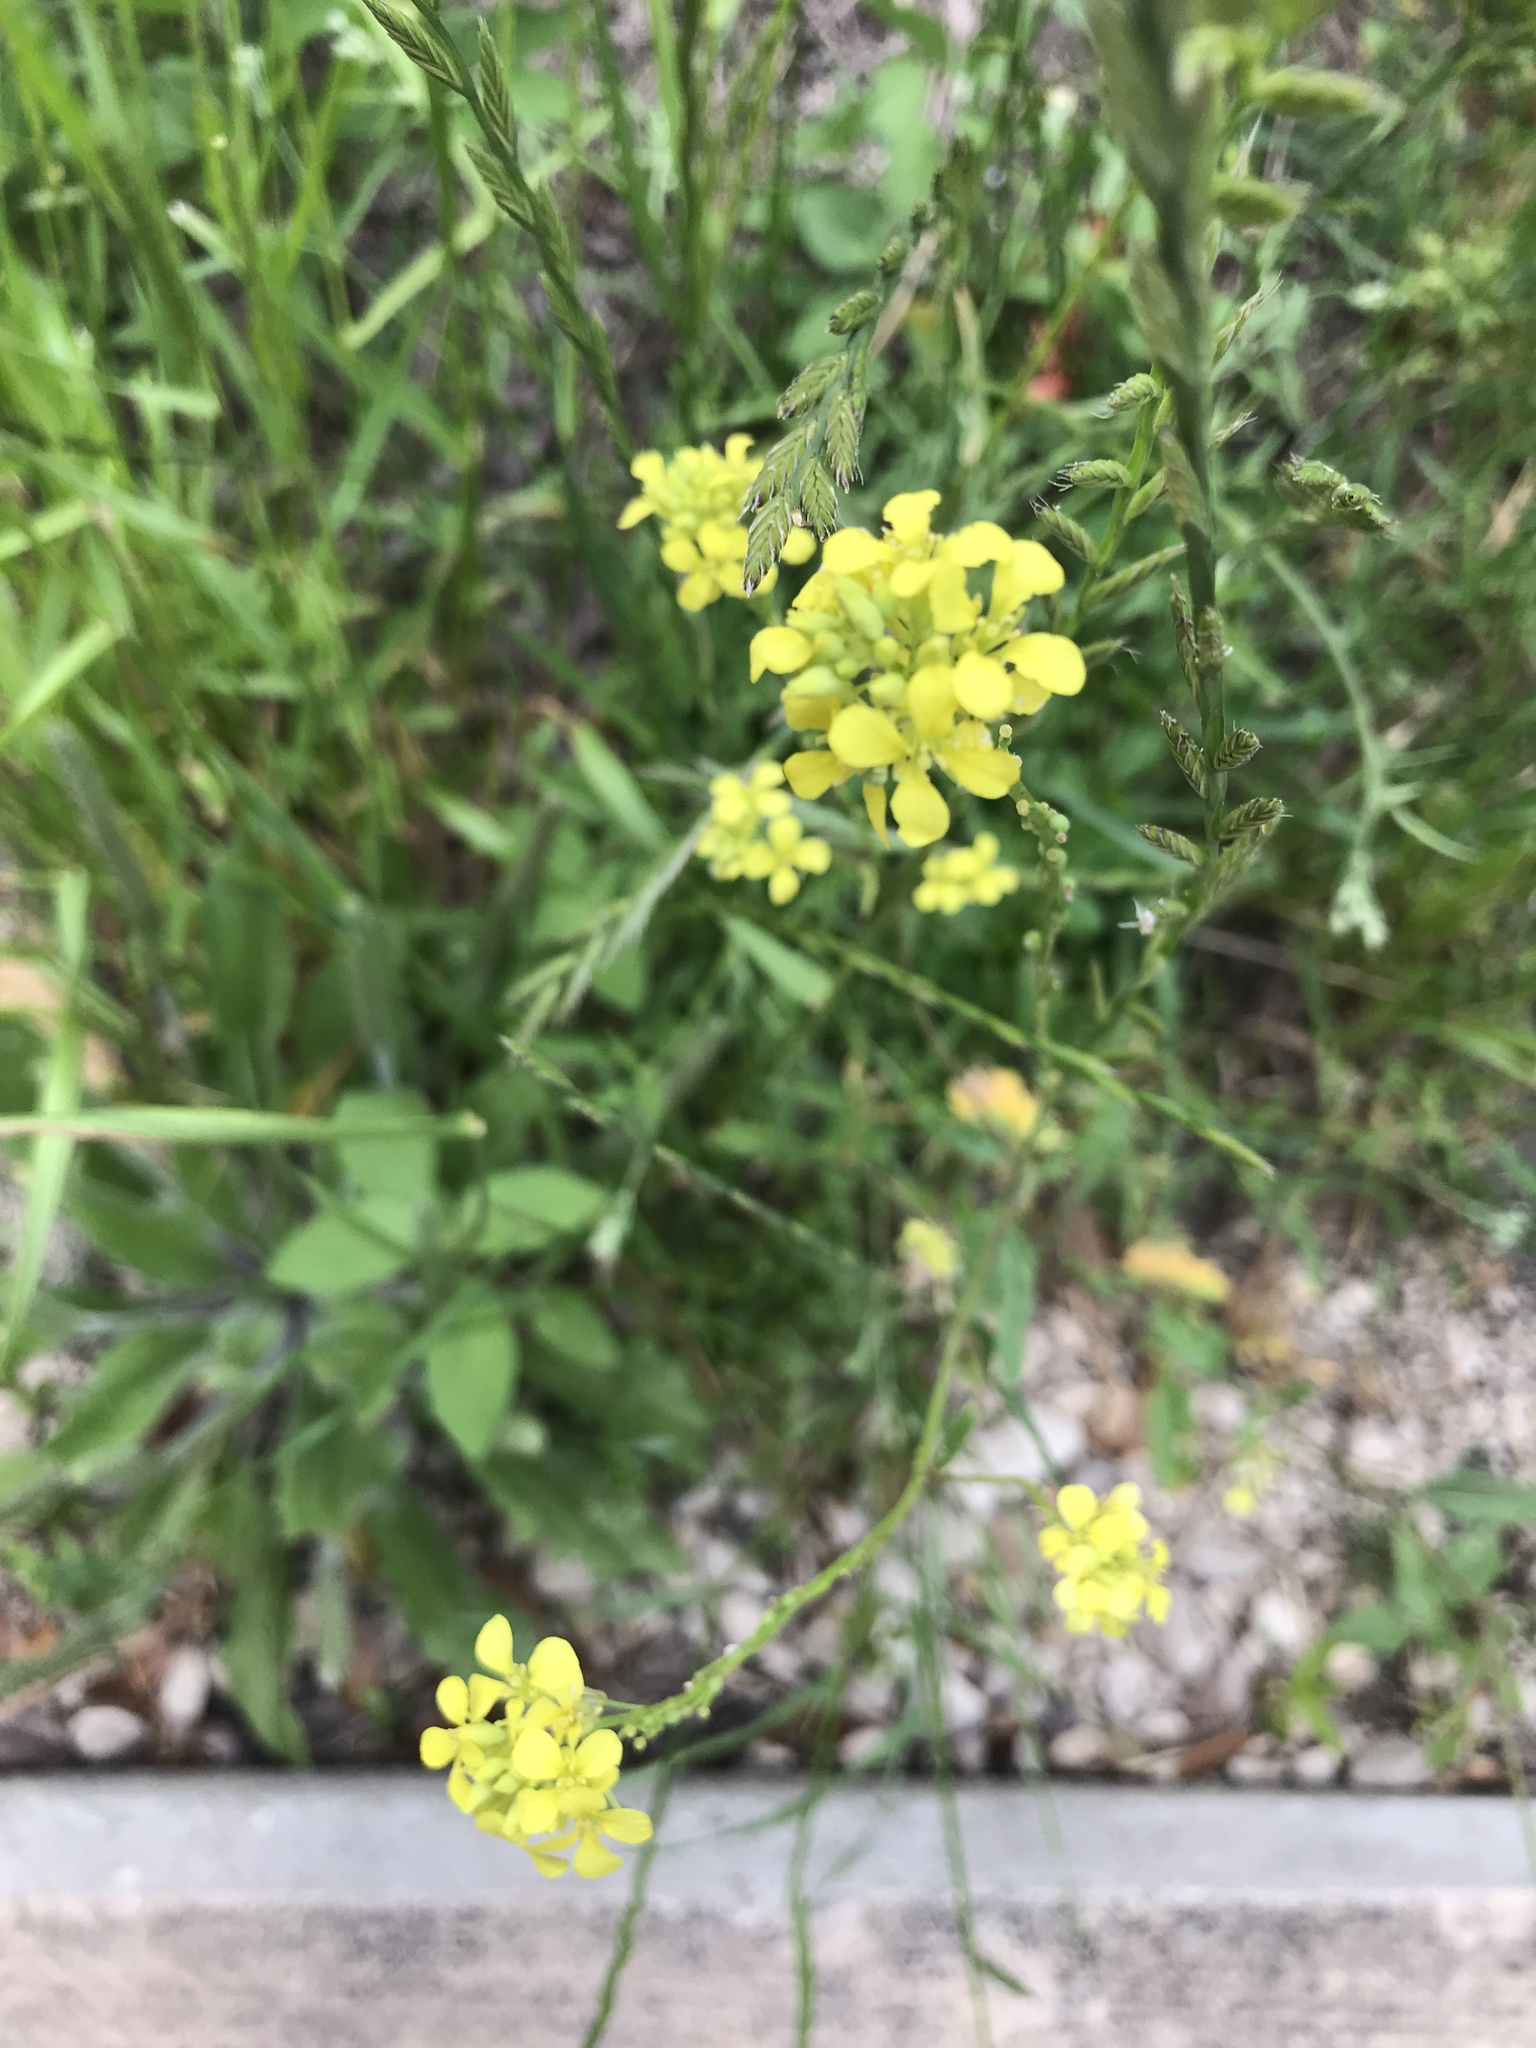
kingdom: Plantae
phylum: Tracheophyta
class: Magnoliopsida
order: Brassicales
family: Brassicaceae
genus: Rapistrum
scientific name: Rapistrum rugosum
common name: Annual bastardcabbage
